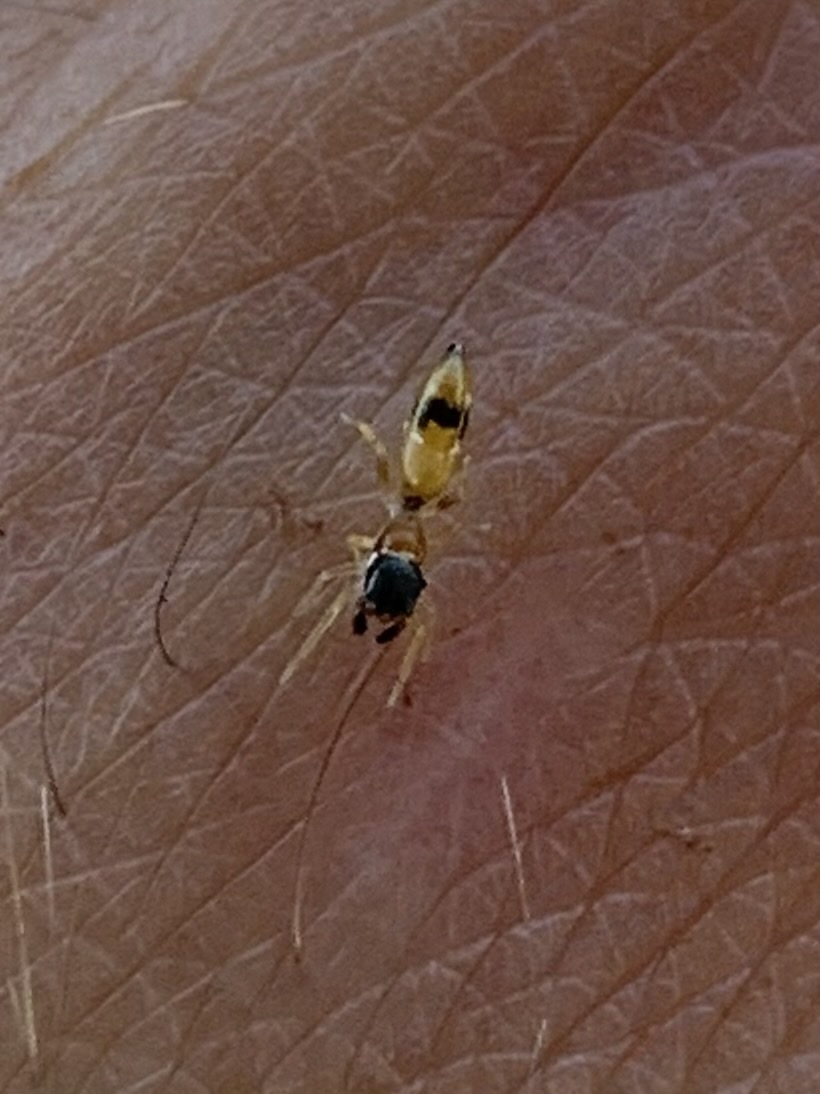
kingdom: Animalia
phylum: Arthropoda
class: Arachnida
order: Araneae
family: Salticidae
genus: Myrmarachne
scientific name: Myrmarachne nigella
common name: Jumping spider
